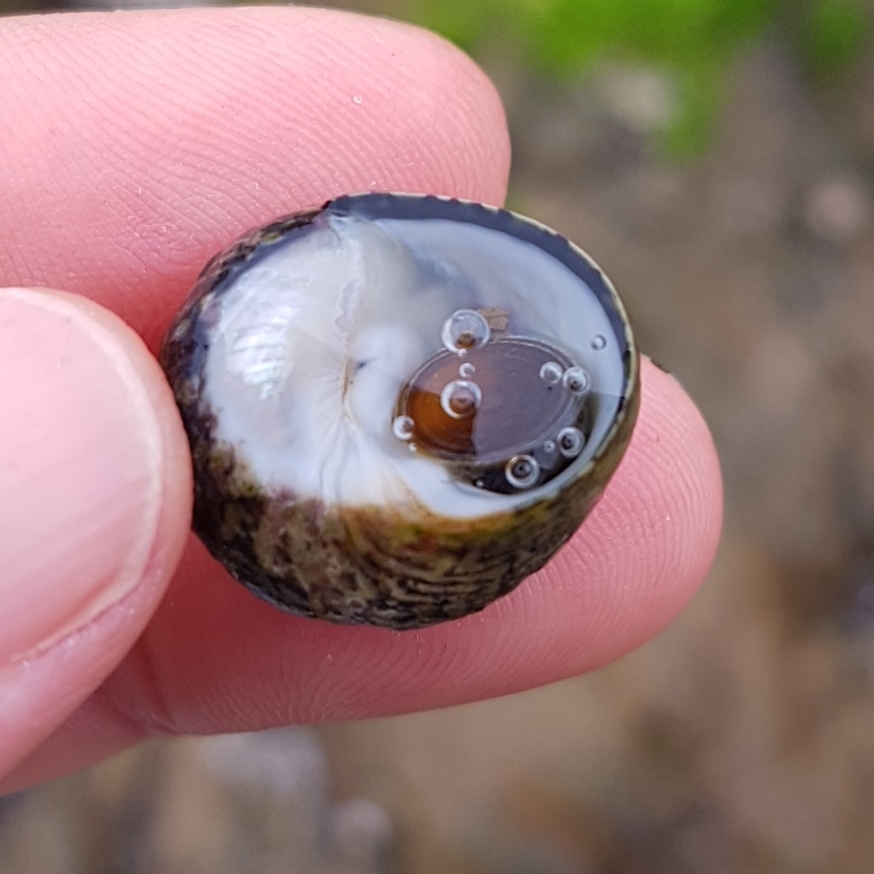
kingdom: Animalia
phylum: Mollusca
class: Gastropoda
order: Trochida
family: Trochidae
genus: Phorcus
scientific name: Phorcus lineatus
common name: Toothed top shell
